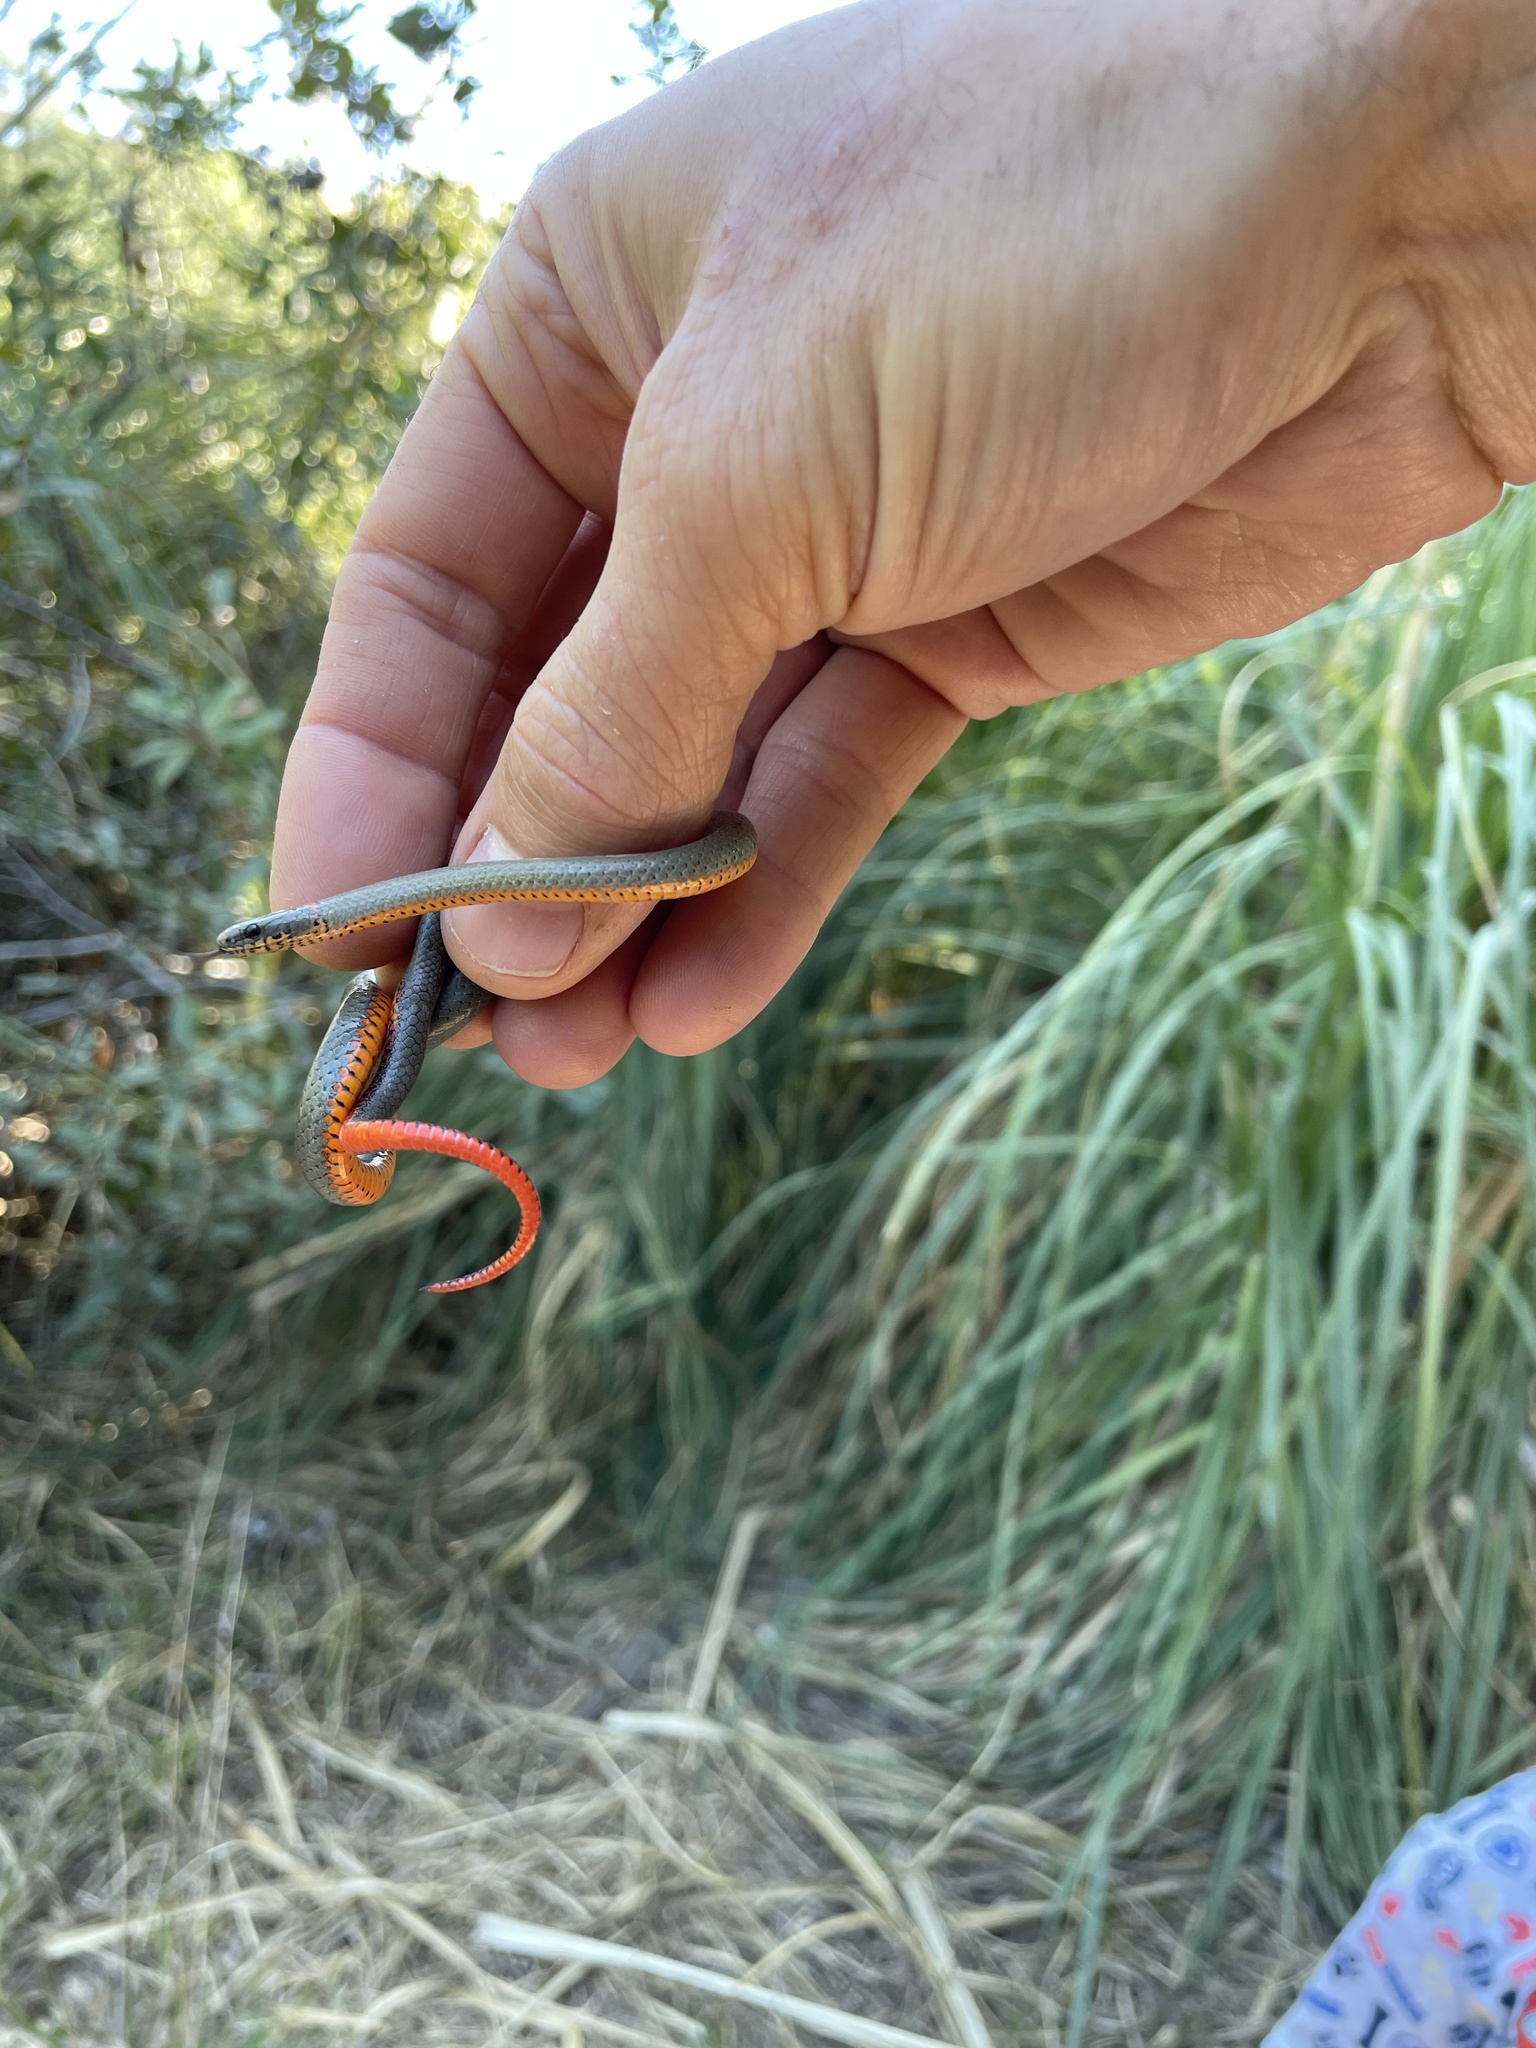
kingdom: Animalia
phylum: Chordata
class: Squamata
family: Colubridae
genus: Diadophis
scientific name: Diadophis punctatus
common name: Ringneck snake
